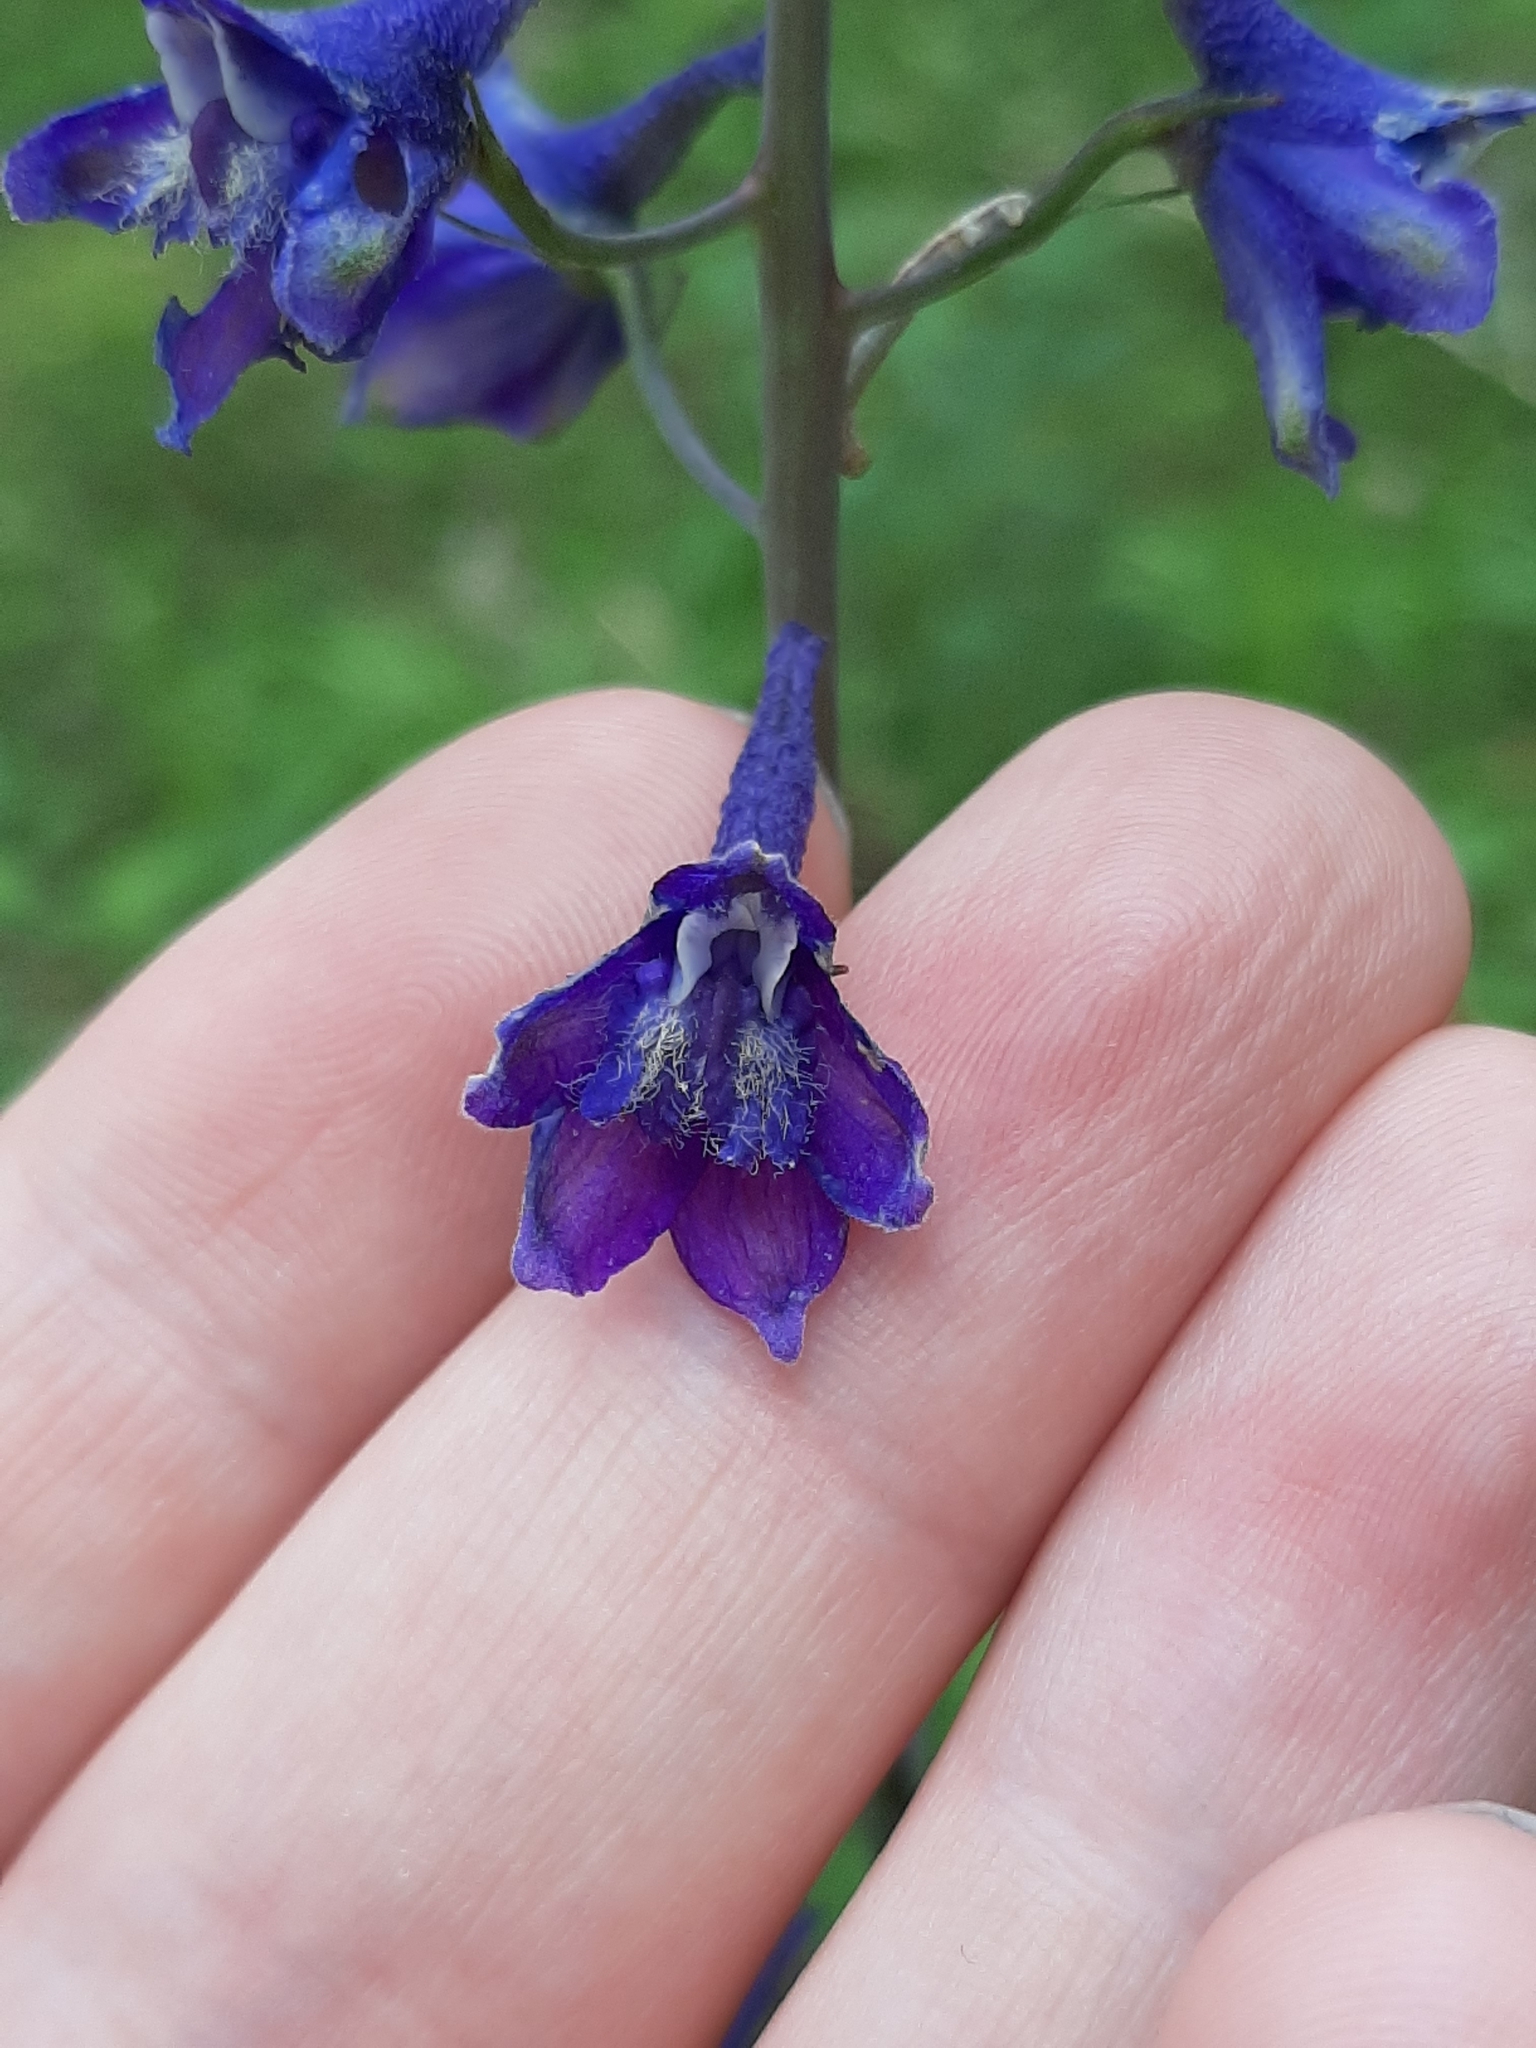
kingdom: Plantae
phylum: Tracheophyta
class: Magnoliopsida
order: Ranunculales
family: Ranunculaceae
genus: Delphinium
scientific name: Delphinium glaucum
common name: Brown's larkspur
